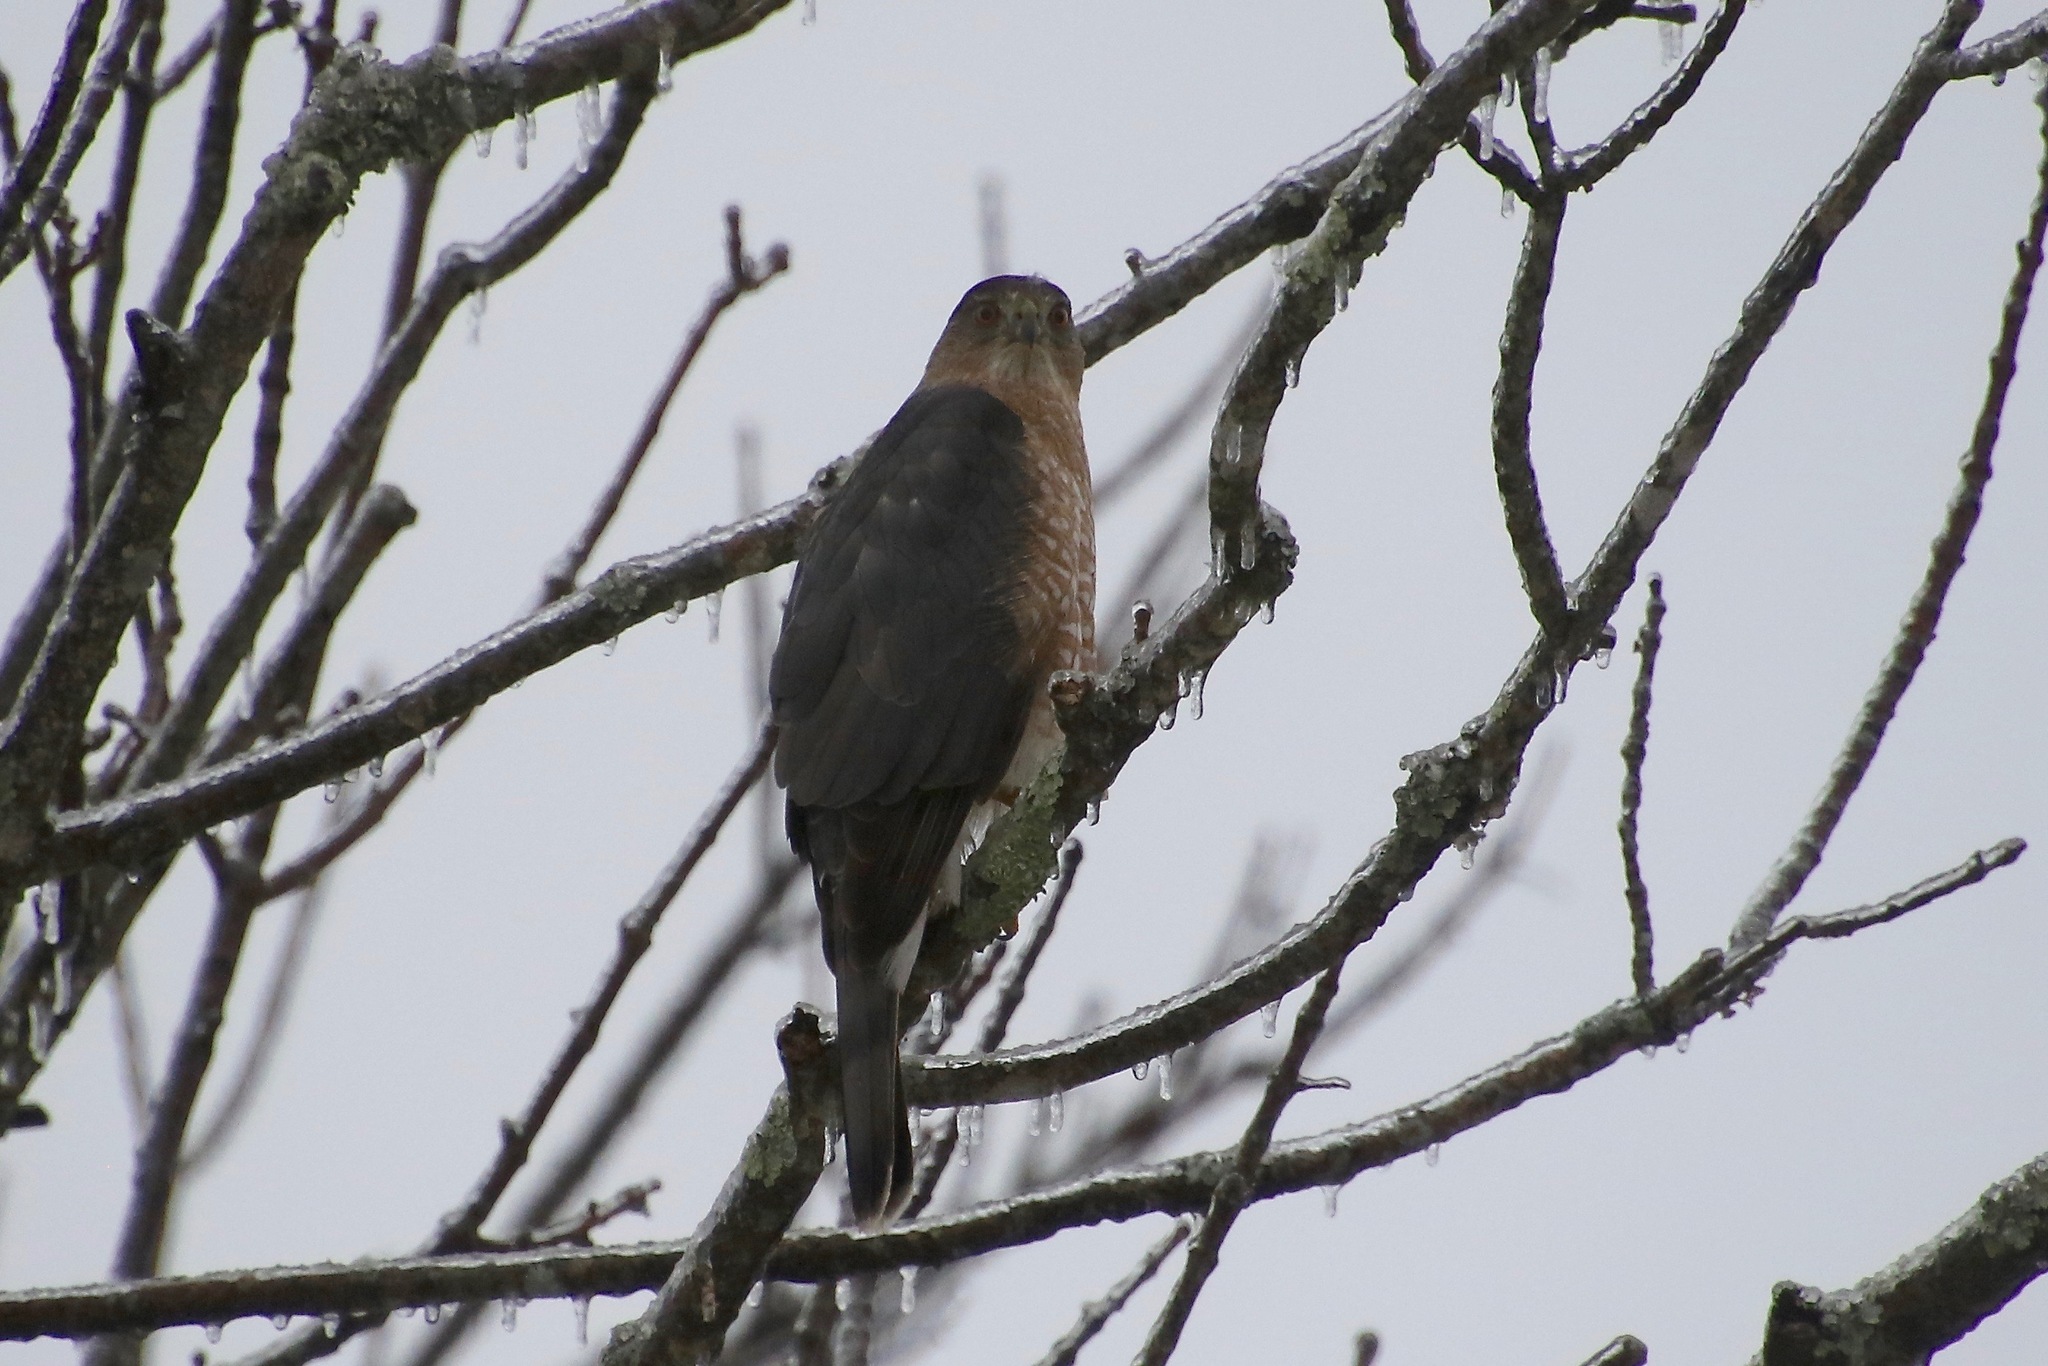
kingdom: Animalia
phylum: Chordata
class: Aves
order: Accipitriformes
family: Accipitridae
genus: Accipiter
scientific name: Accipiter cooperii
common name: Cooper's hawk
